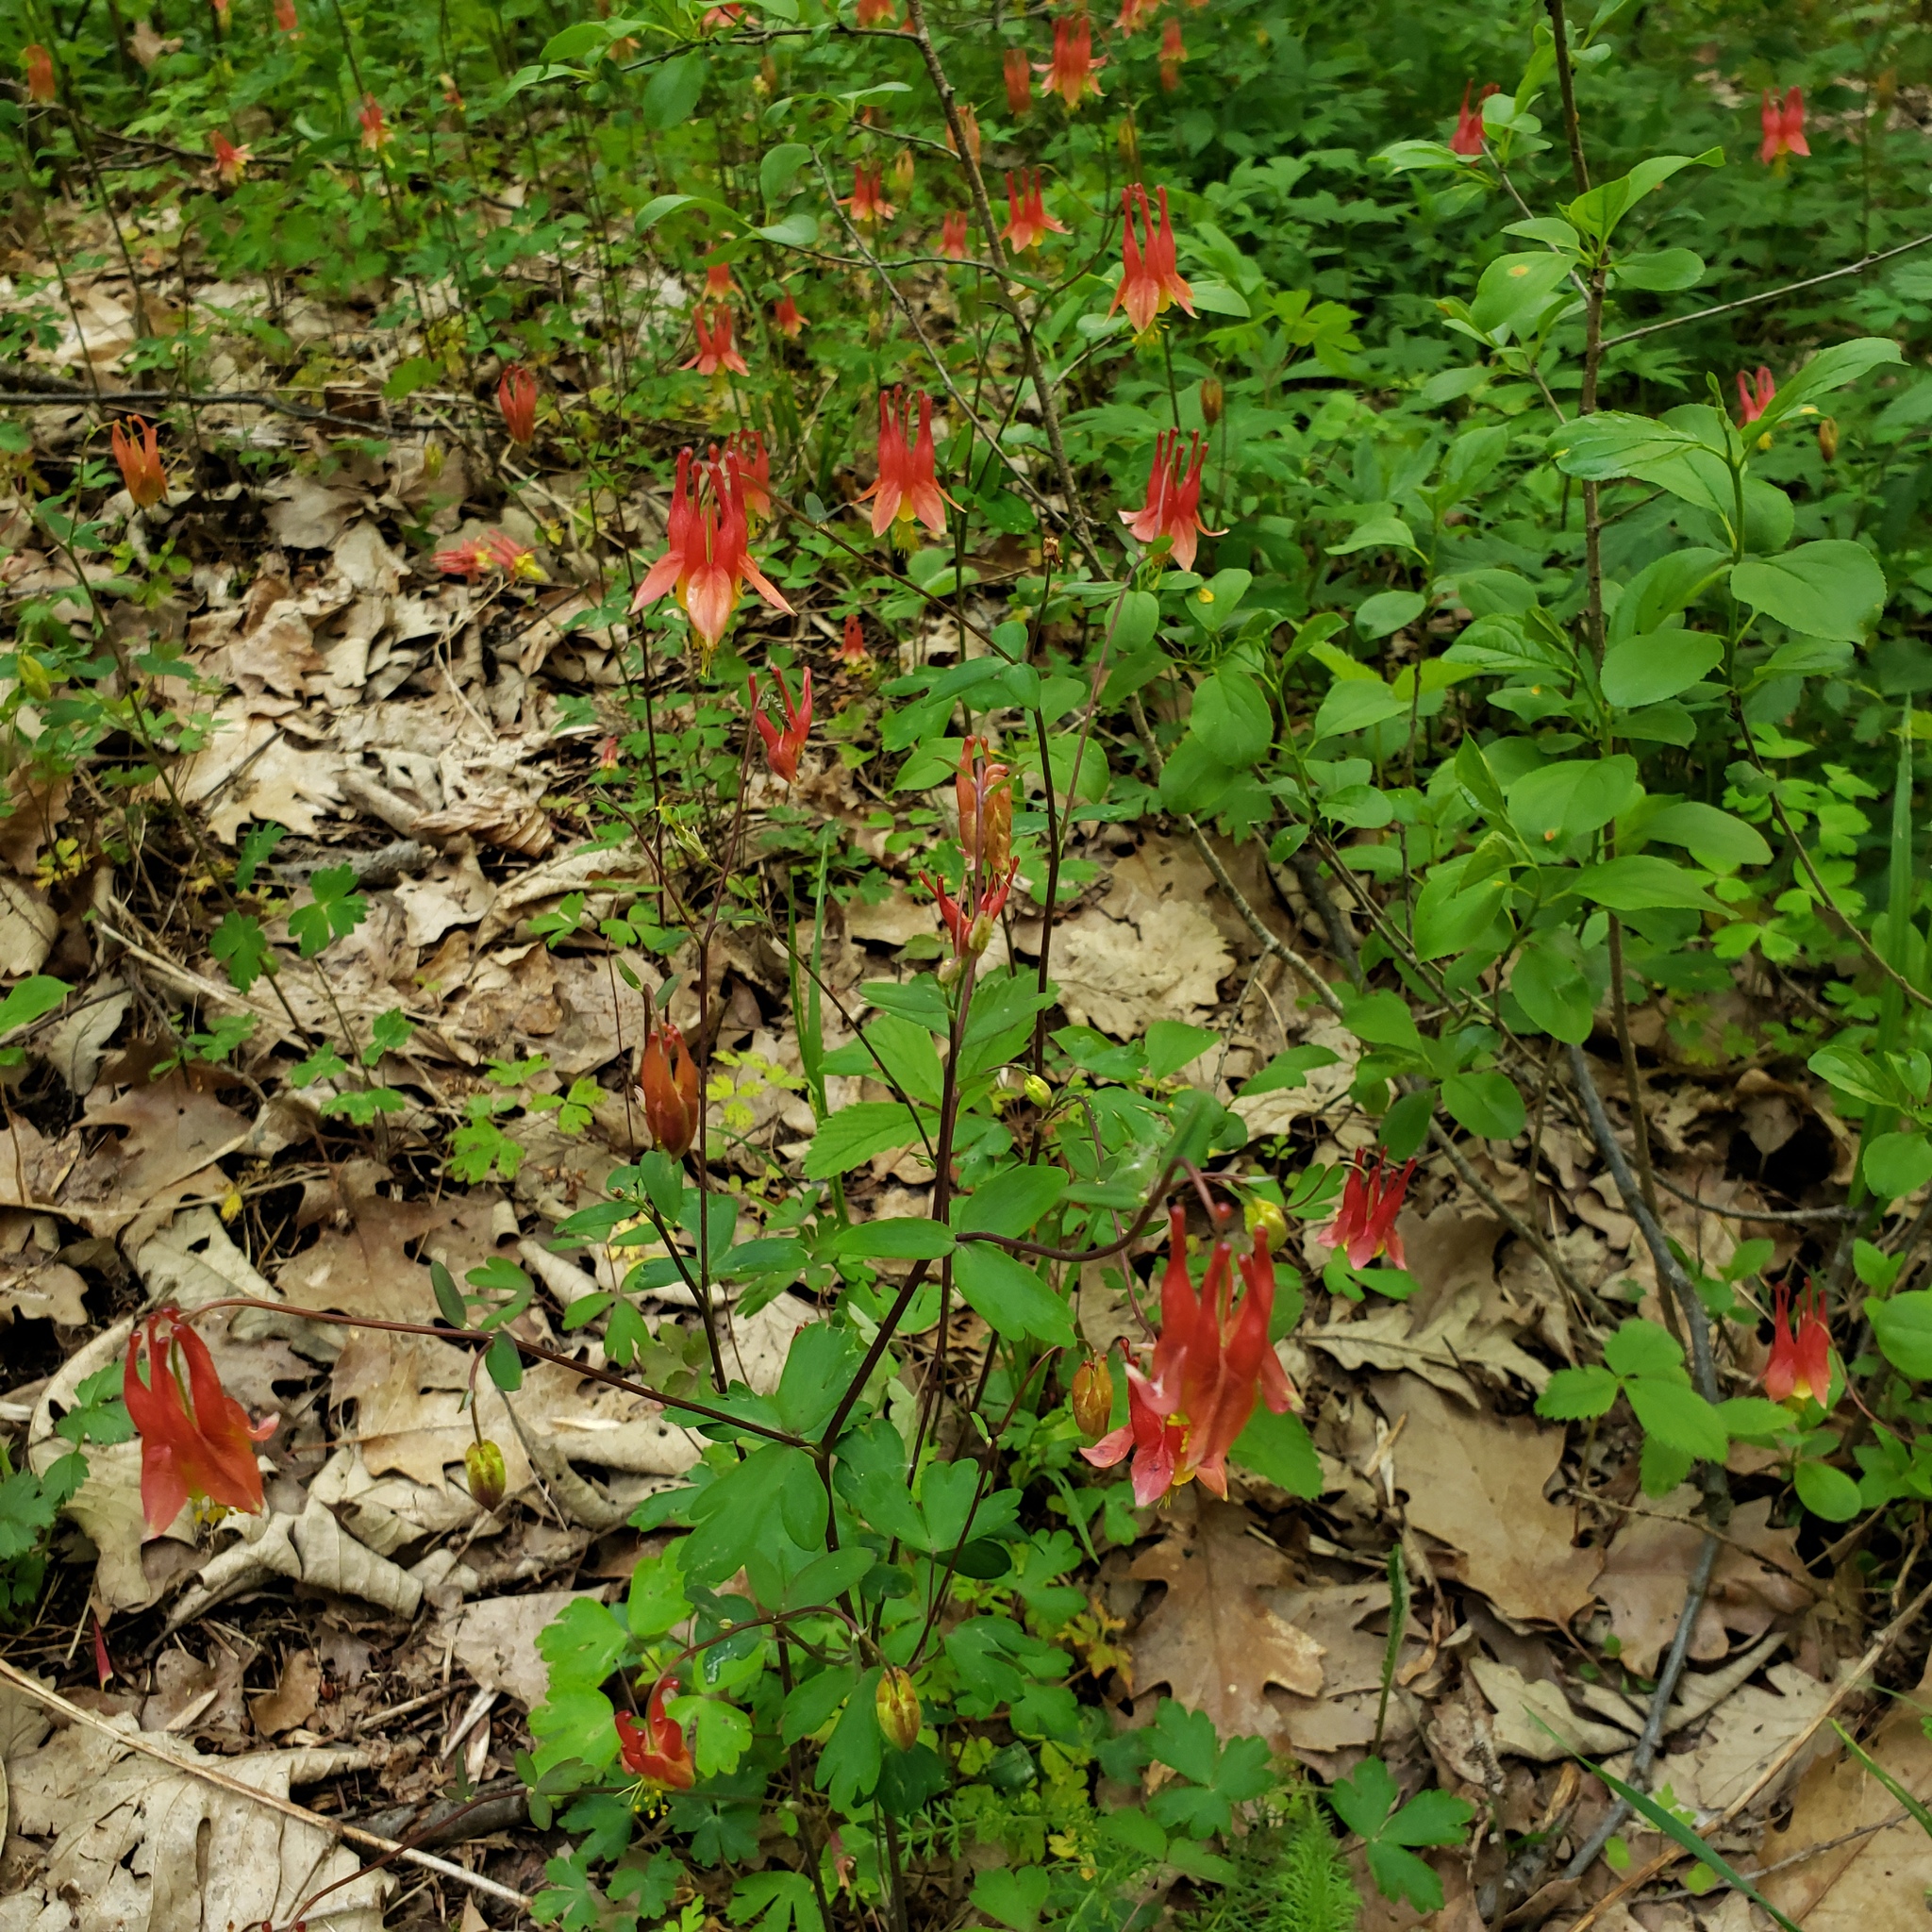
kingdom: Plantae
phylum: Tracheophyta
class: Magnoliopsida
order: Ranunculales
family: Ranunculaceae
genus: Aquilegia
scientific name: Aquilegia canadensis
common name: American columbine
